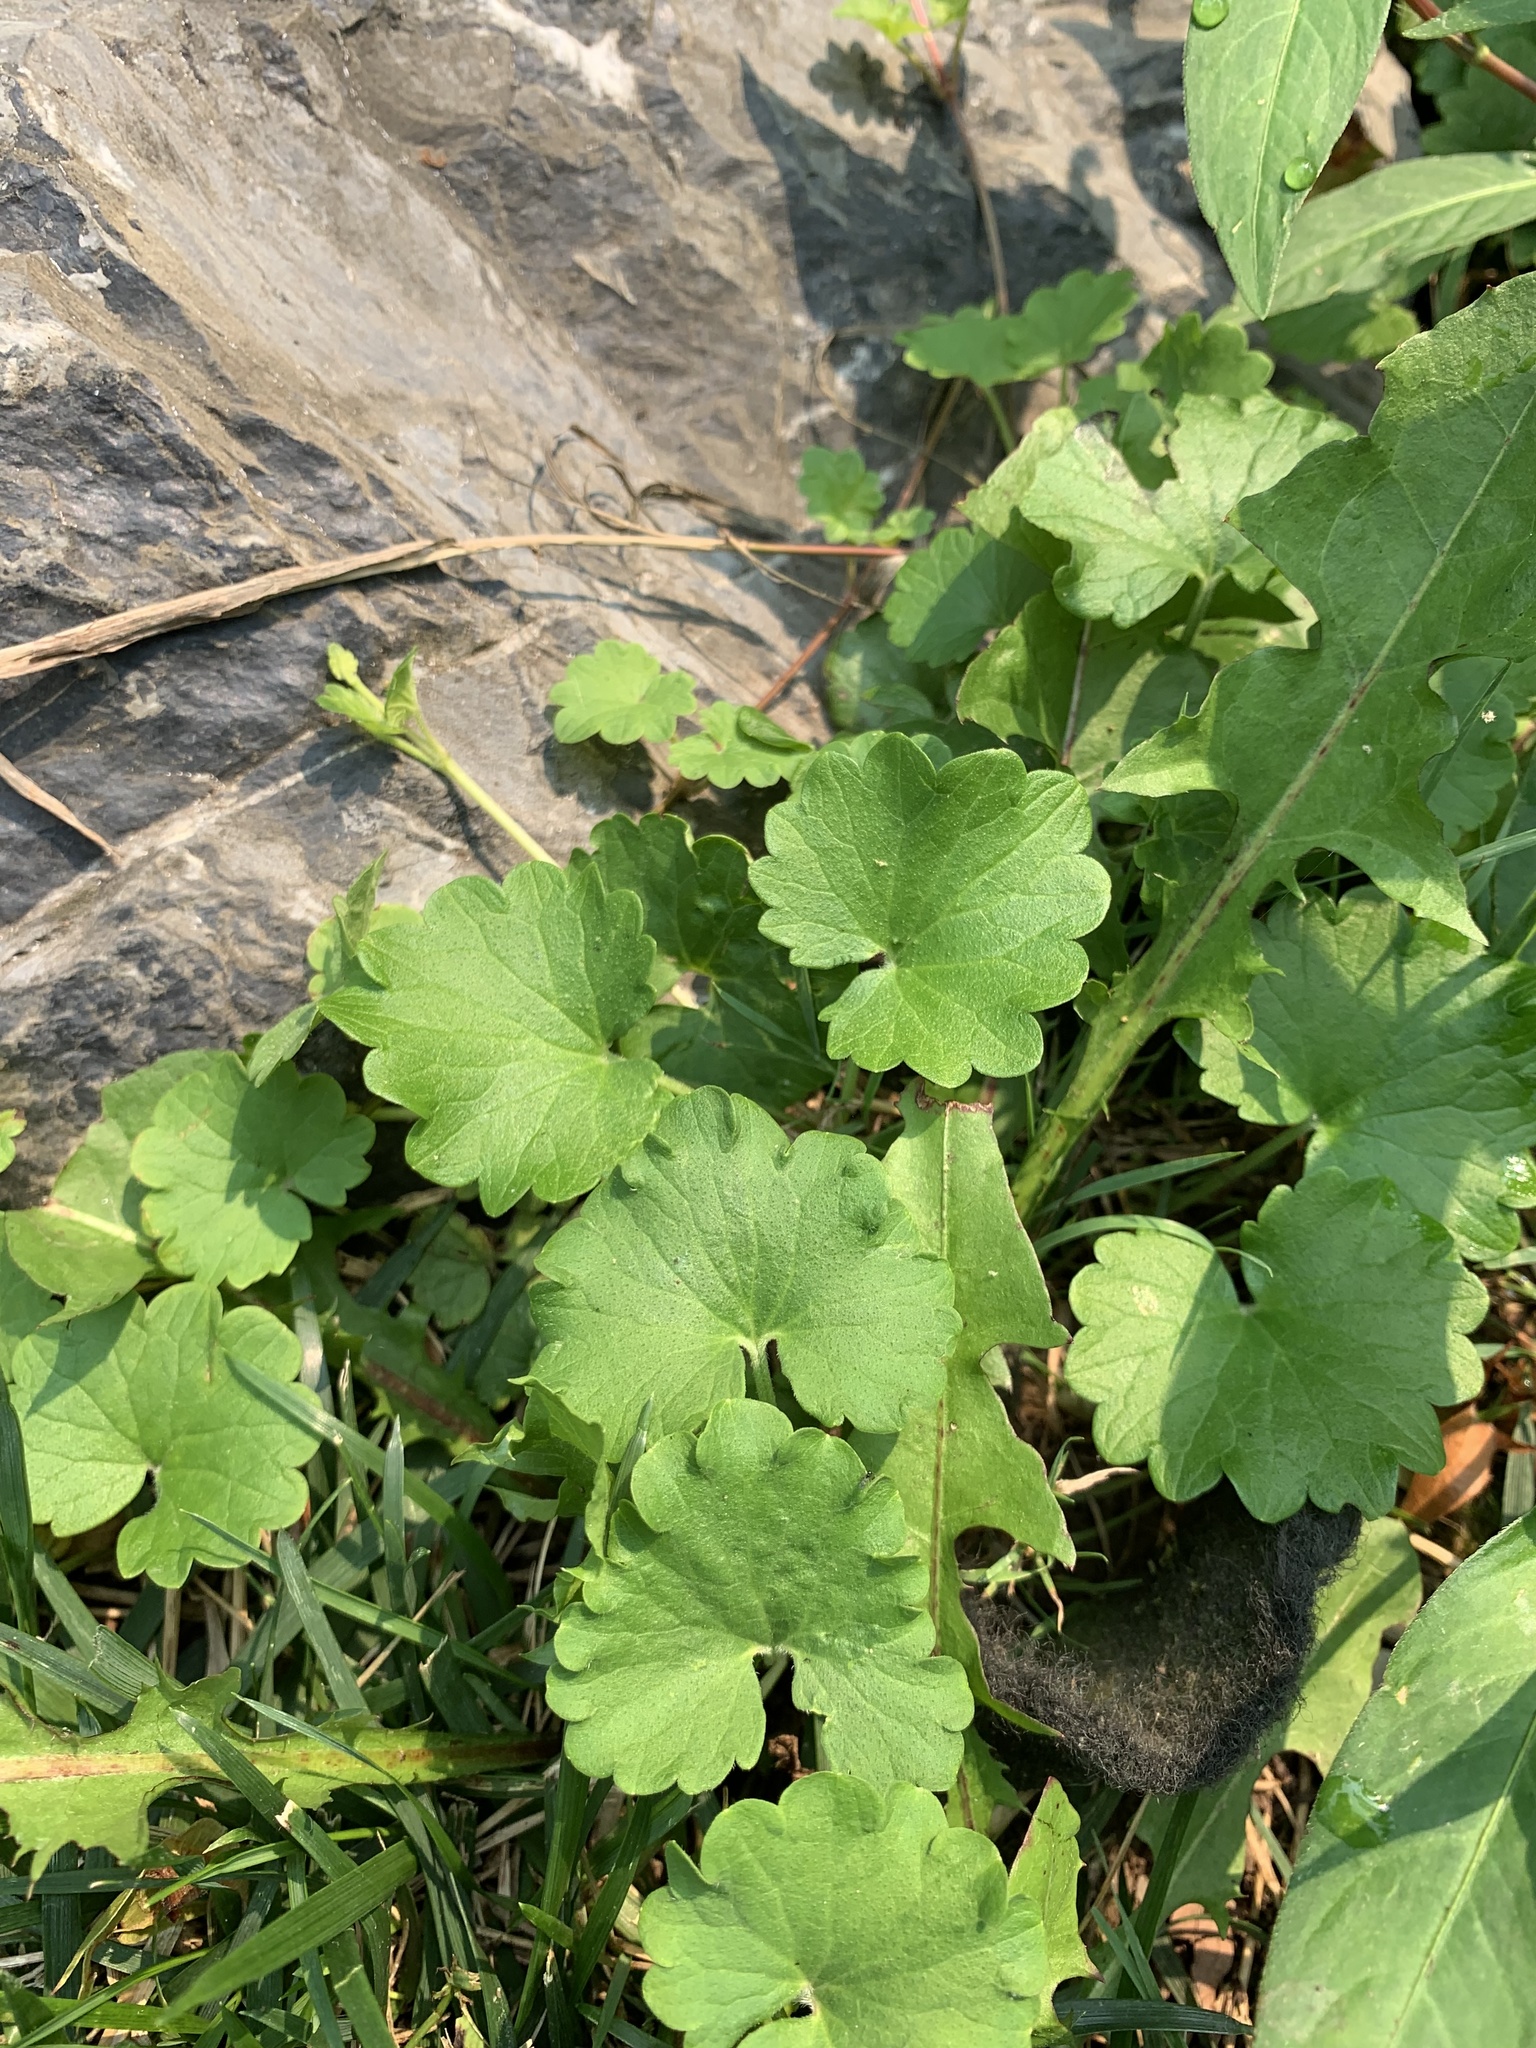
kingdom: Plantae
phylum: Tracheophyta
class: Magnoliopsida
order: Lamiales
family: Lamiaceae
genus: Glechoma
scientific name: Glechoma hederacea
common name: Ground ivy
